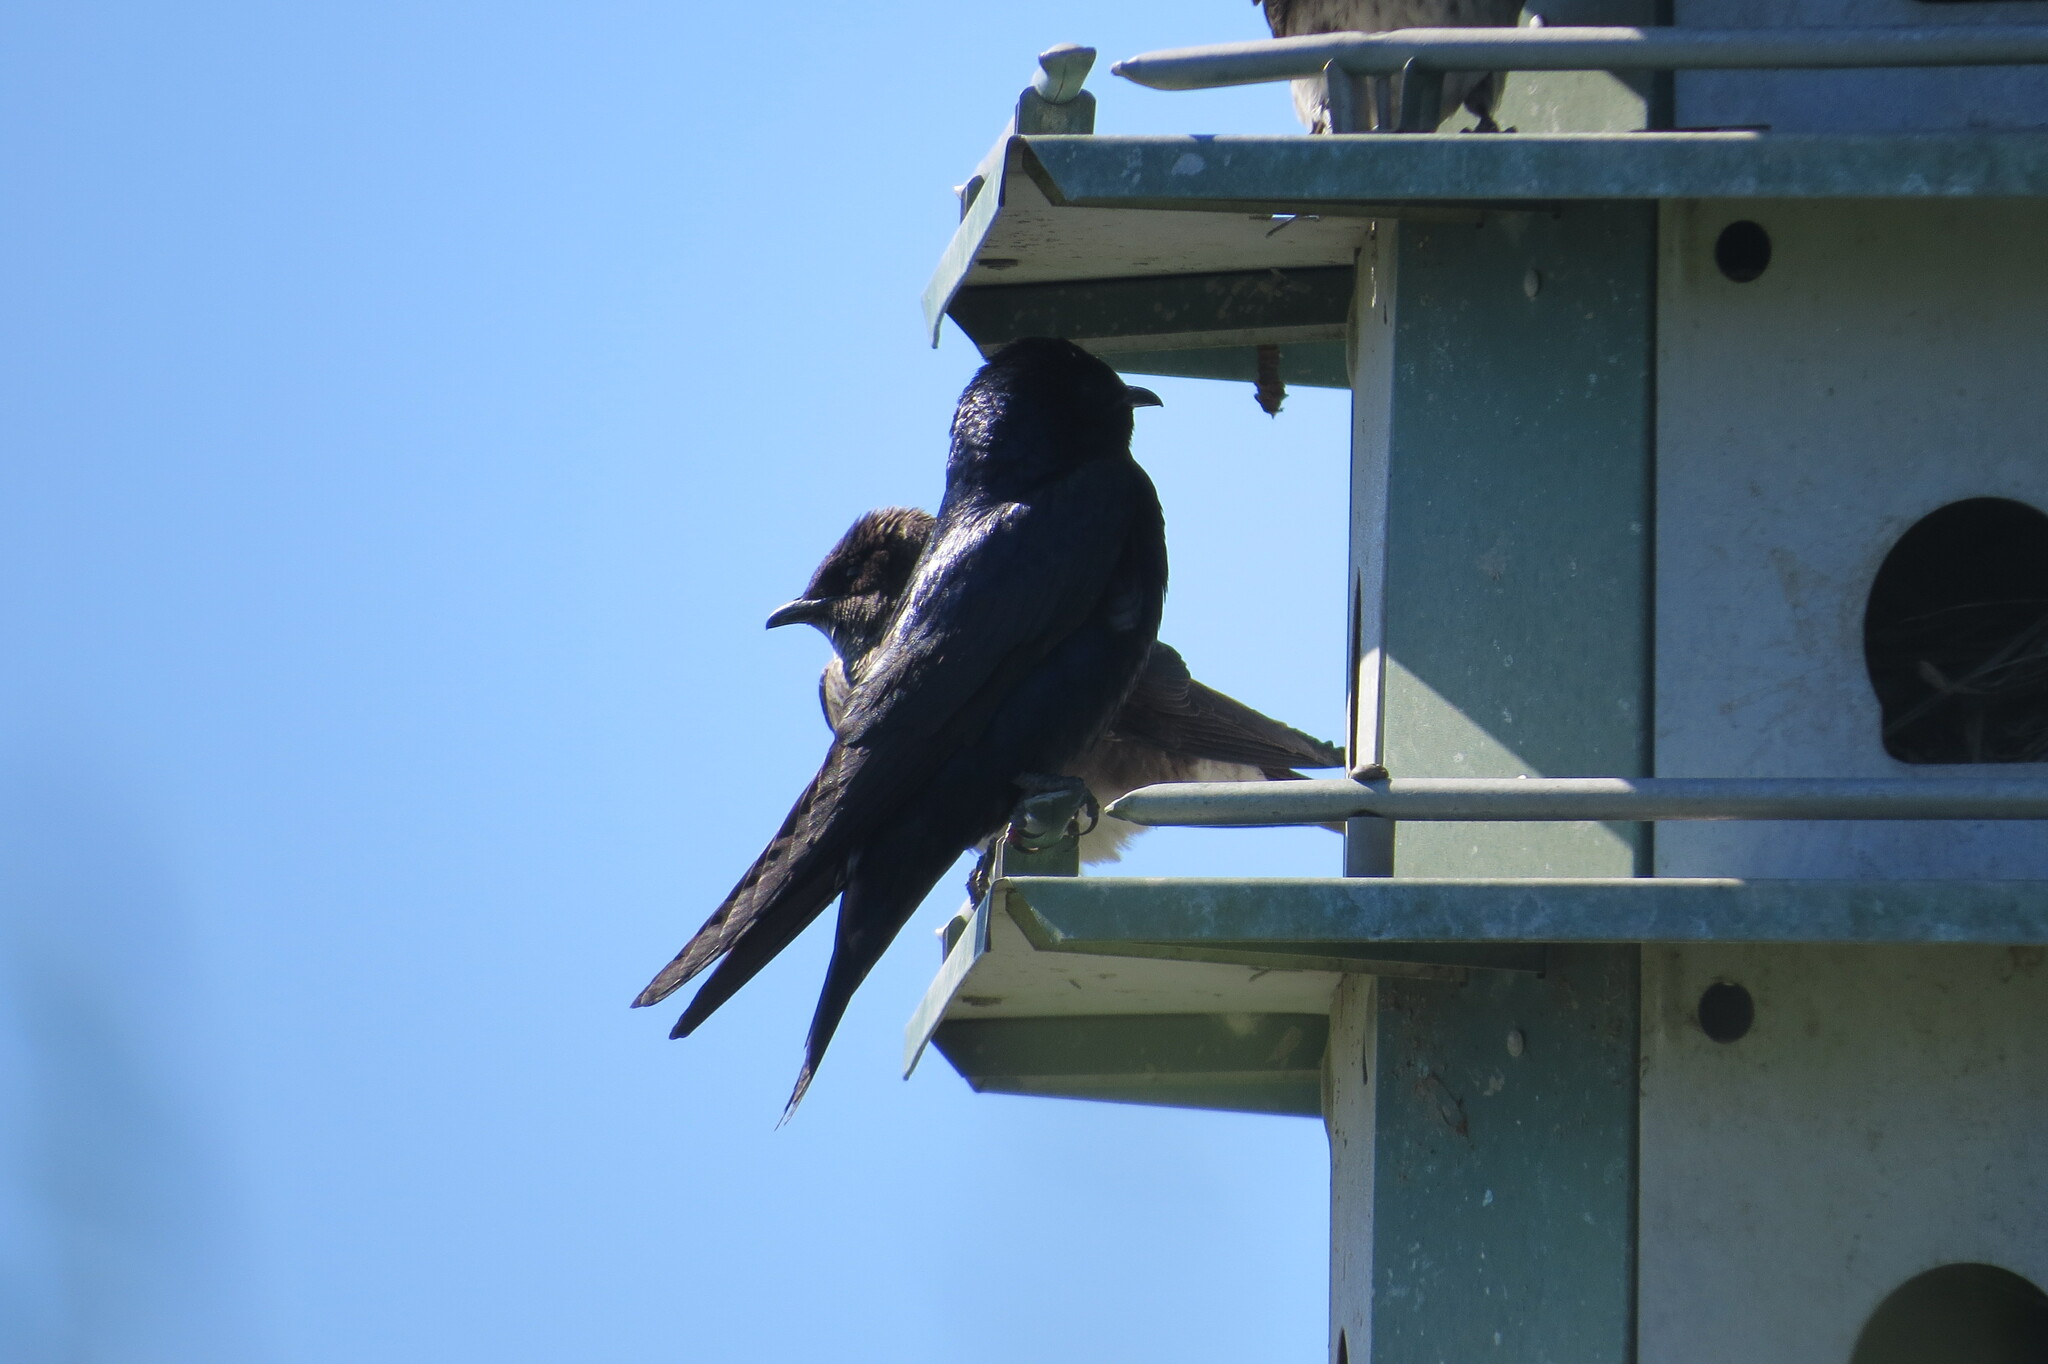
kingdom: Animalia
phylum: Chordata
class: Aves
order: Passeriformes
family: Hirundinidae
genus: Progne
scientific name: Progne subis
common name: Purple martin
